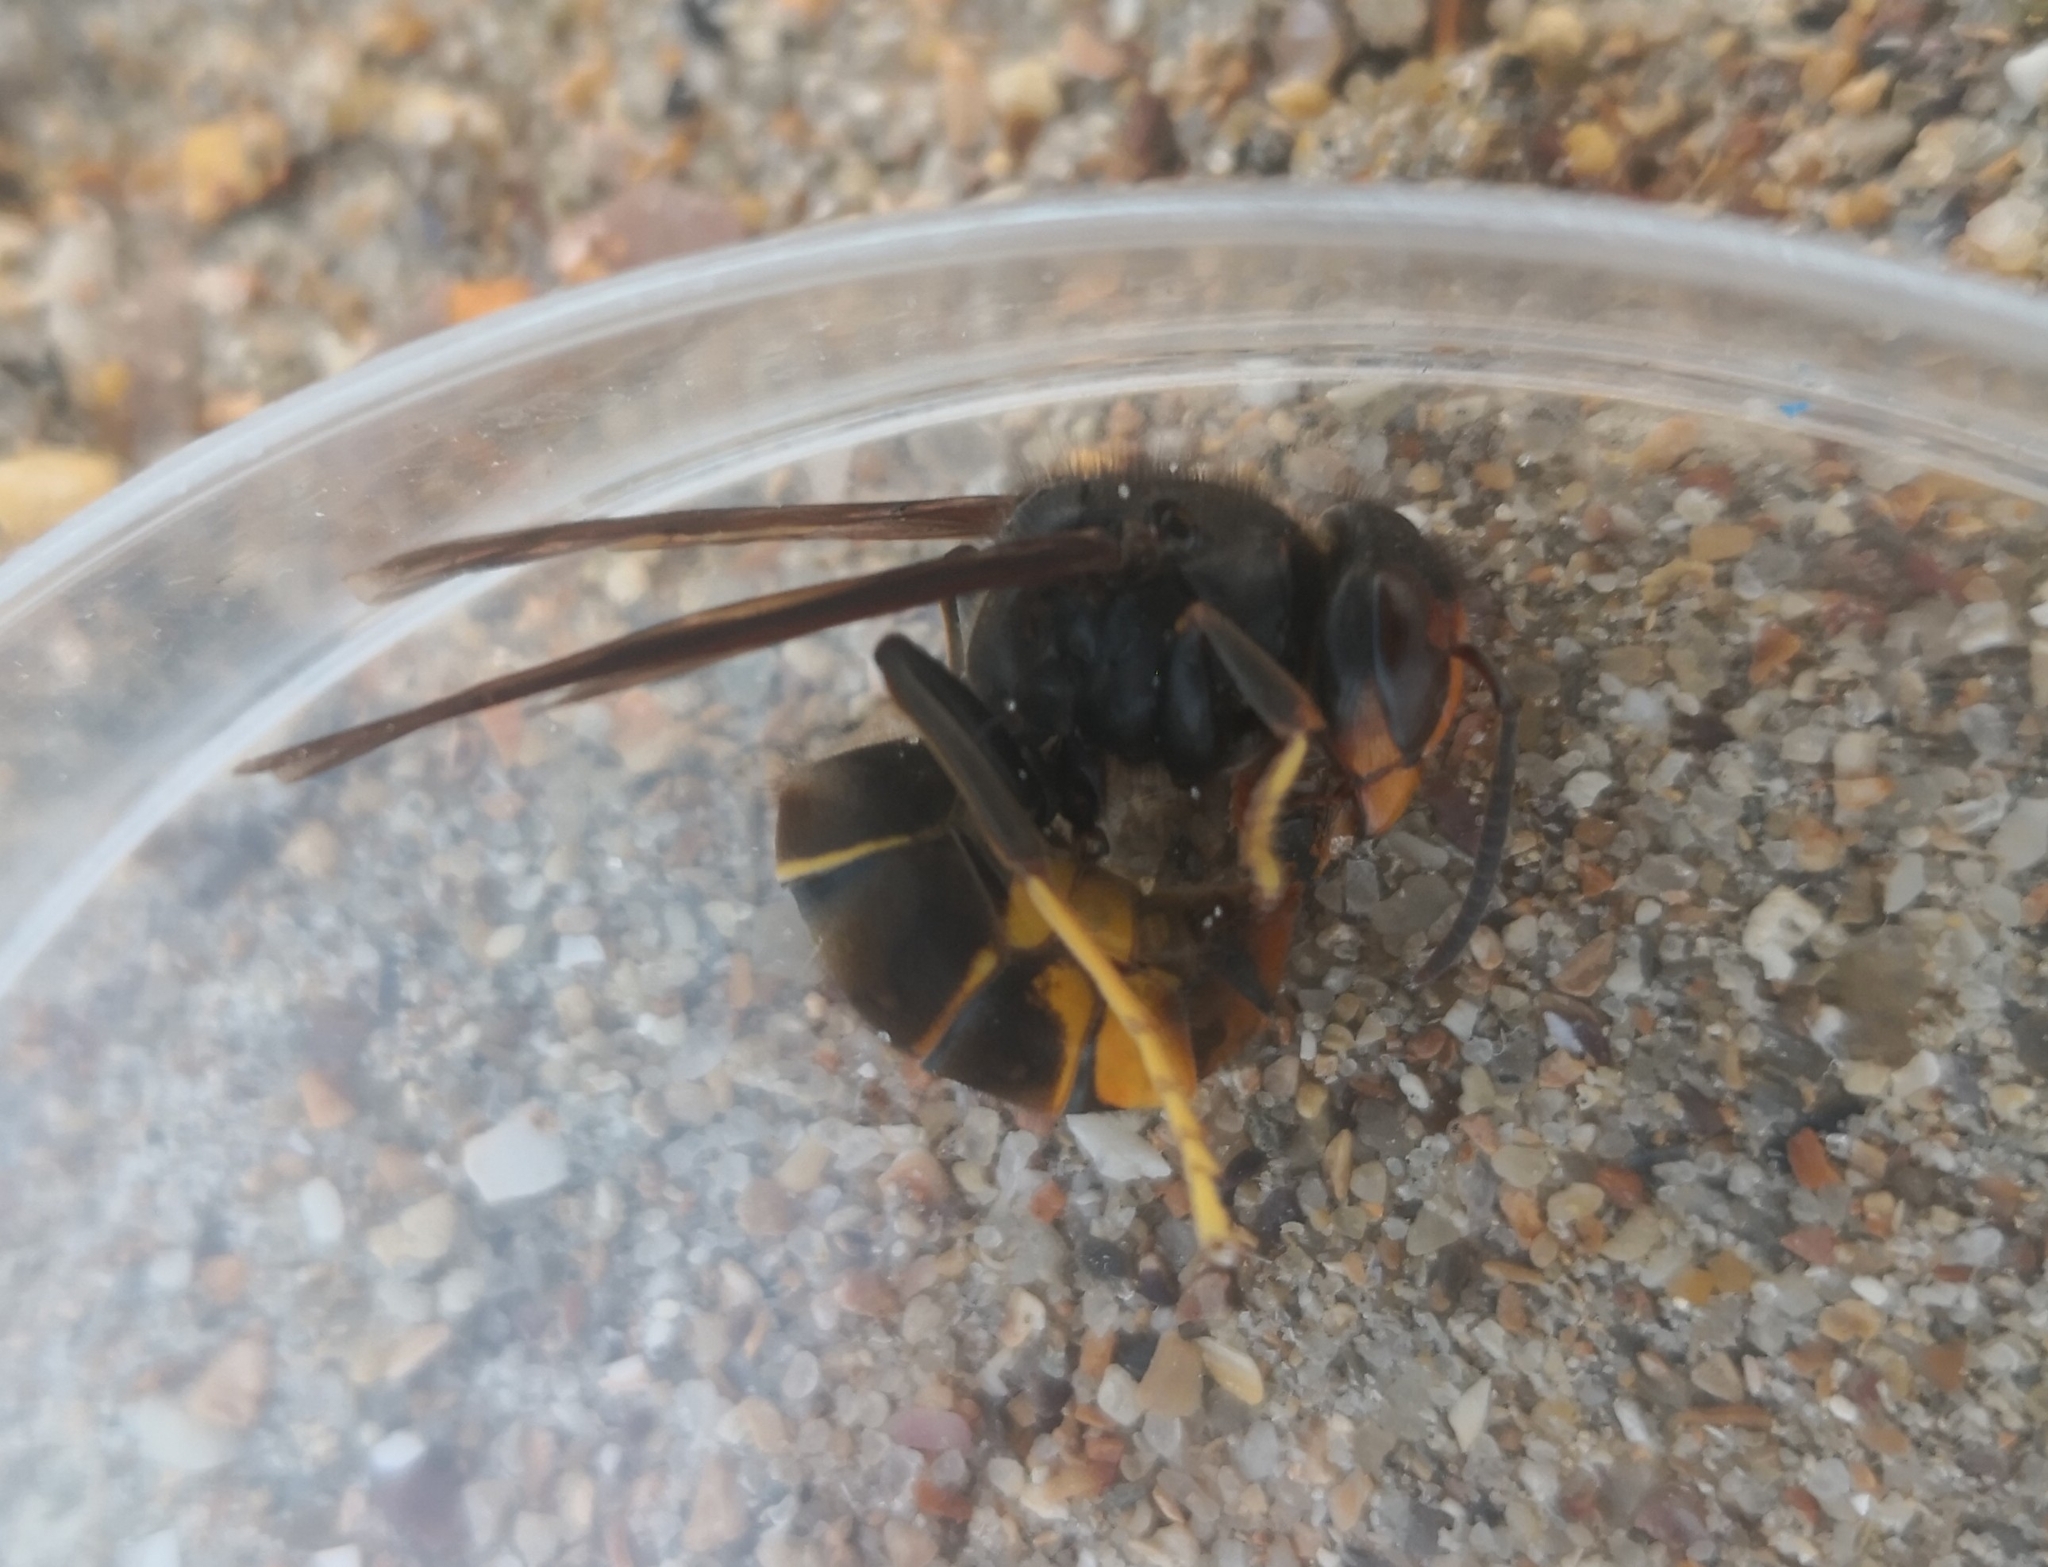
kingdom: Animalia
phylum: Arthropoda
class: Insecta
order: Hymenoptera
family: Vespidae
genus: Vespa
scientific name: Vespa velutina
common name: Asian hornet
